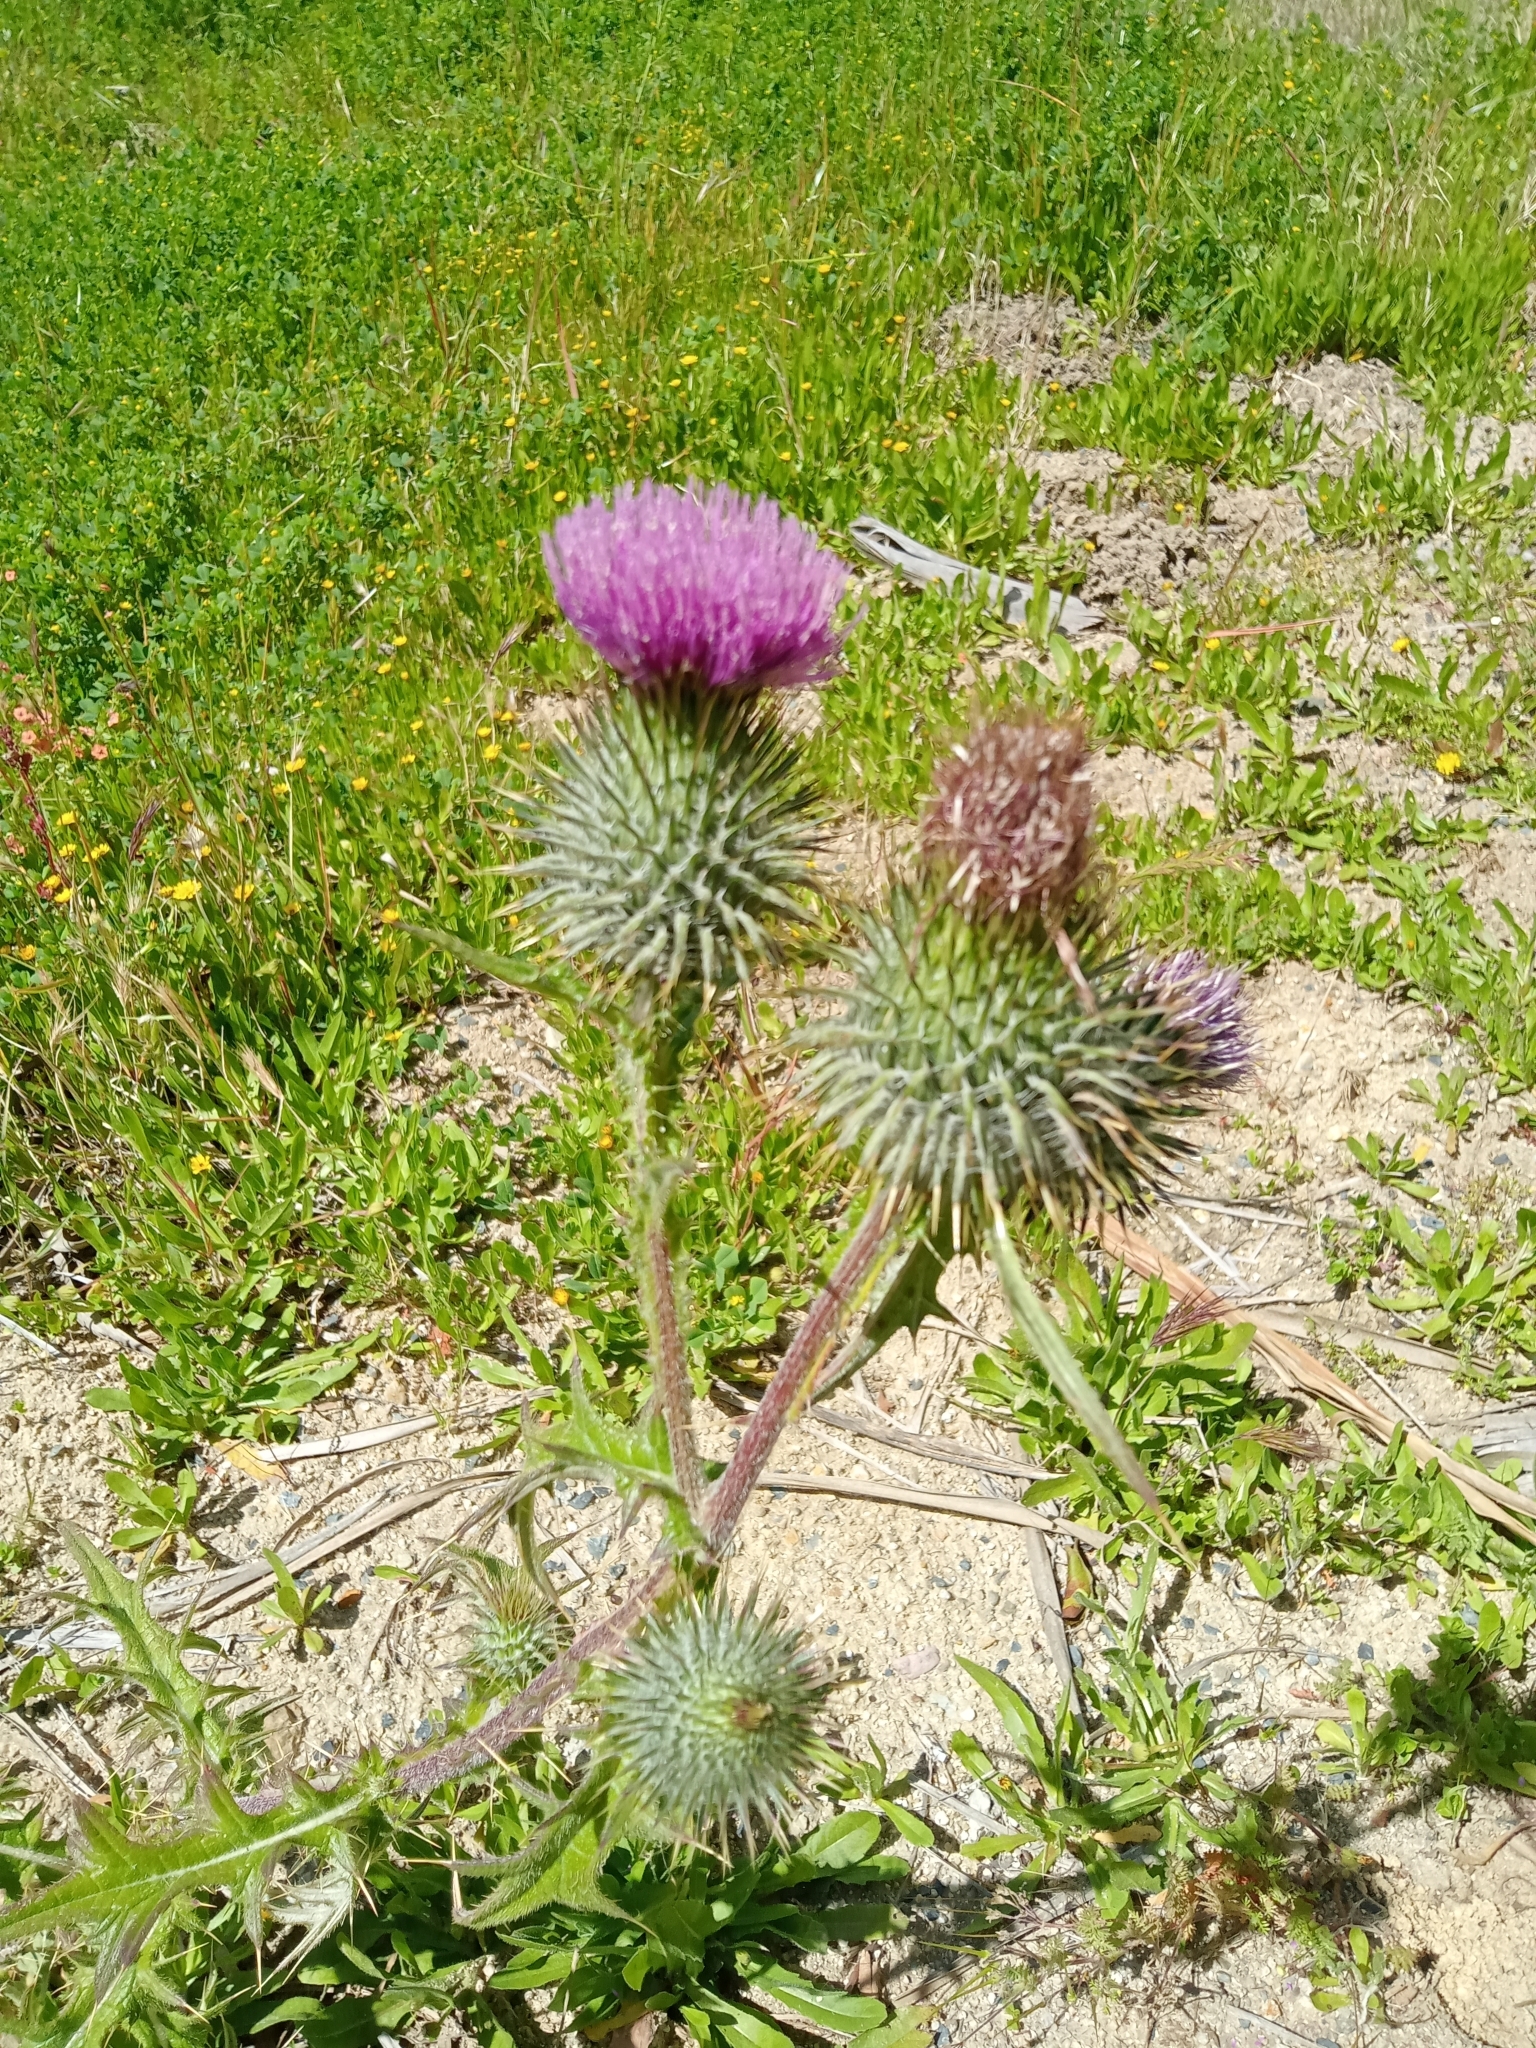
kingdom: Plantae
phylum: Tracheophyta
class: Magnoliopsida
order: Asterales
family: Asteraceae
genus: Cirsium
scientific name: Cirsium vulgare
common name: Bull thistle
